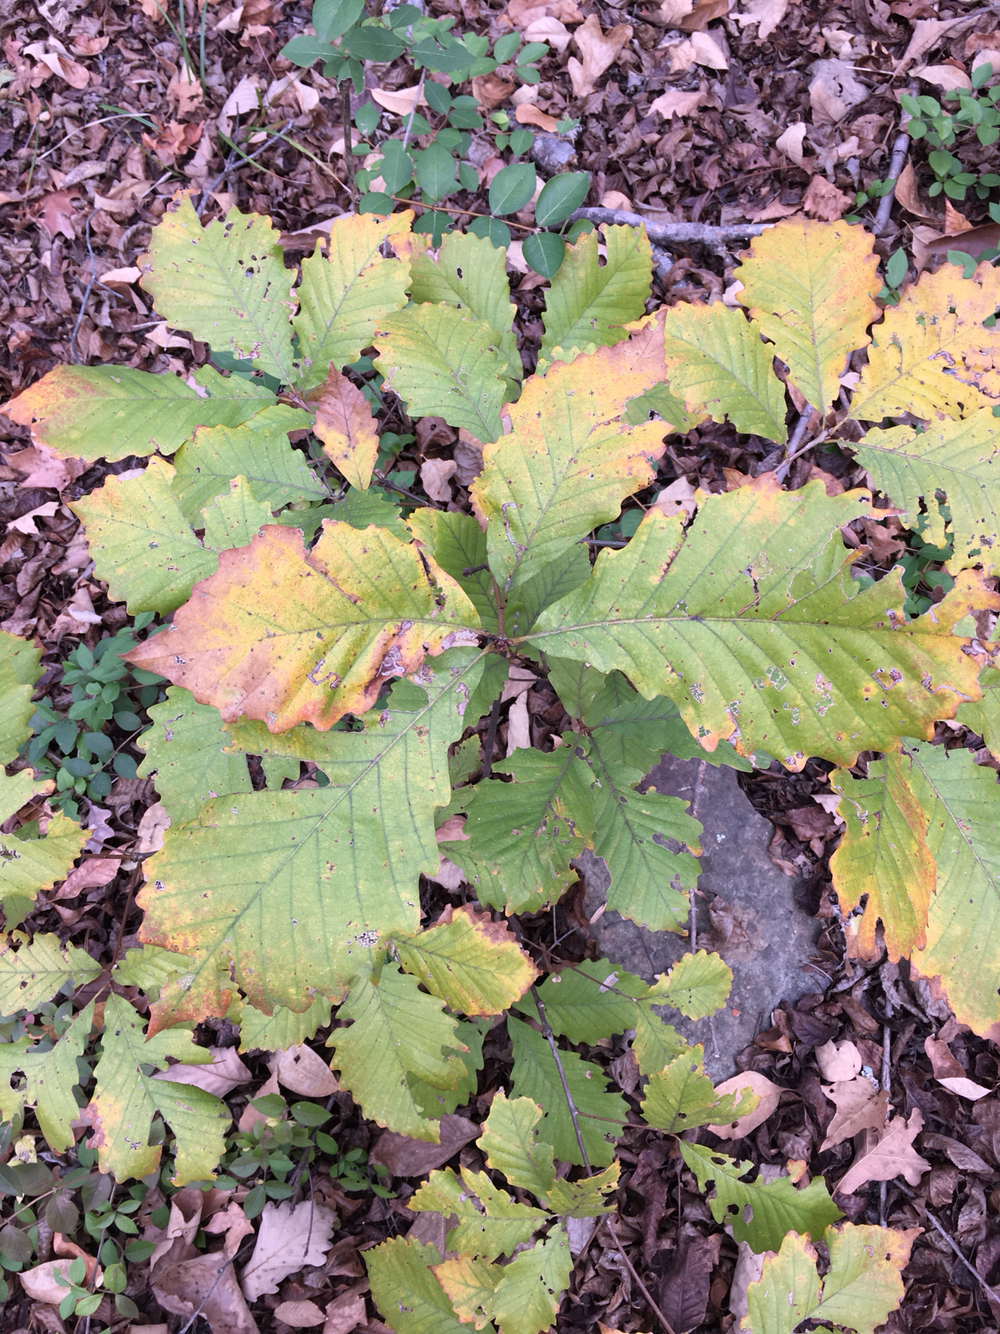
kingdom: Plantae
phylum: Tracheophyta
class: Magnoliopsida
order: Fagales
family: Fagaceae
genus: Quercus
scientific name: Quercus montana
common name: Chestnut oak
